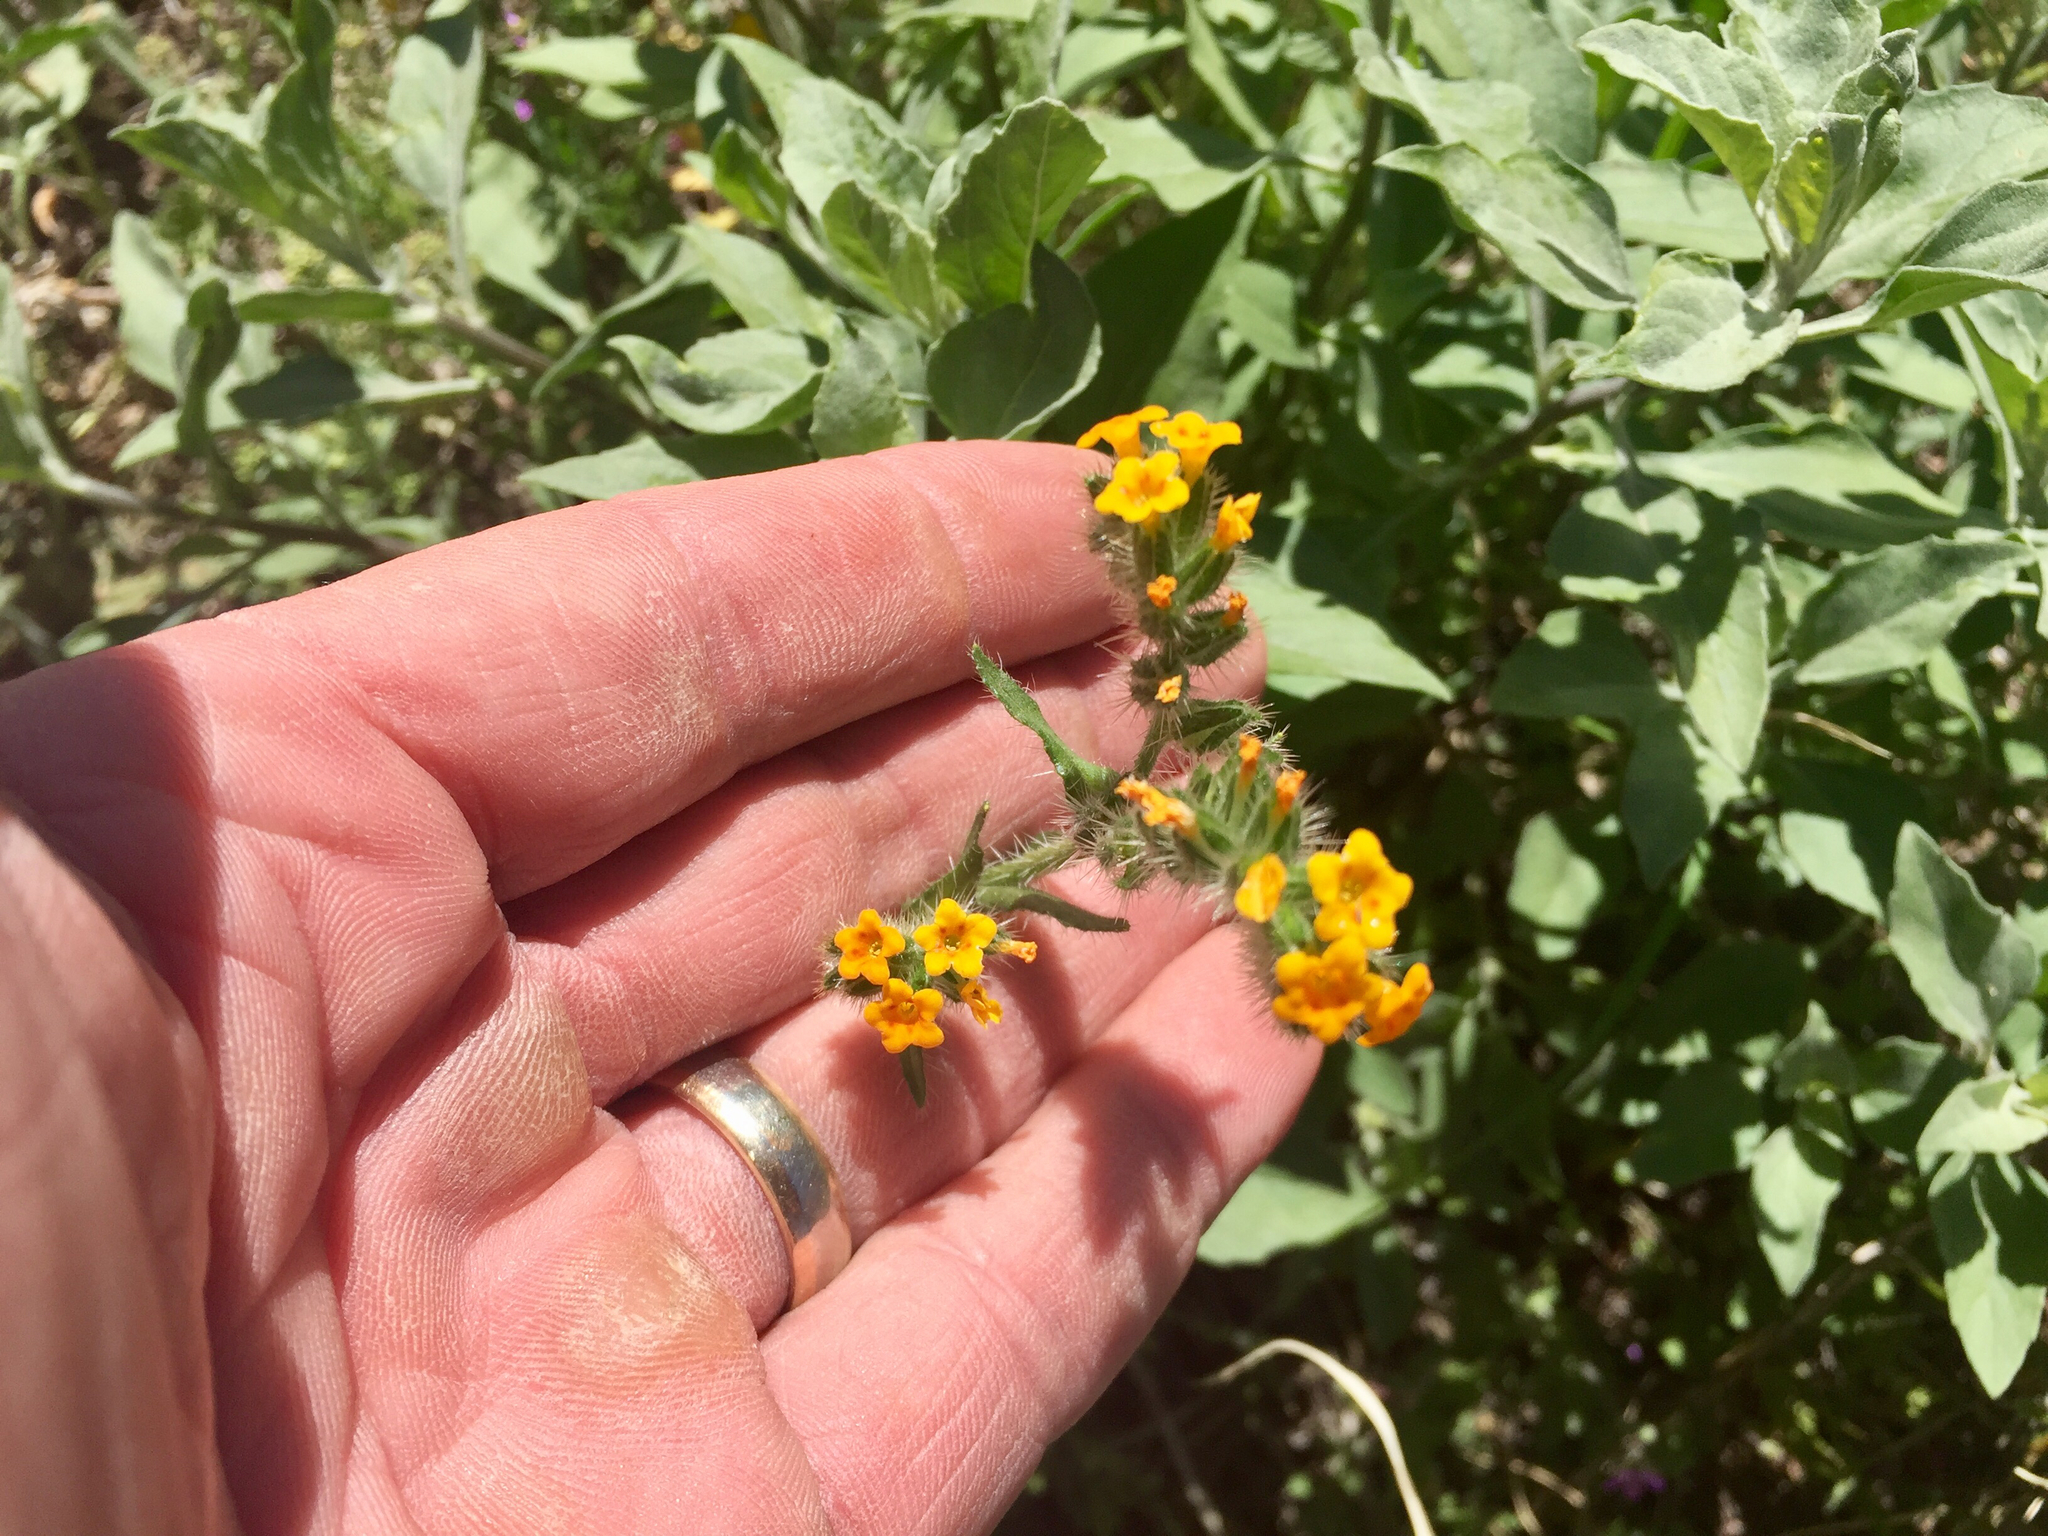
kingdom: Plantae
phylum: Tracheophyta
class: Magnoliopsida
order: Boraginales
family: Boraginaceae
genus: Amsinckia
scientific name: Amsinckia menziesii
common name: Menzies' fiddleneck
